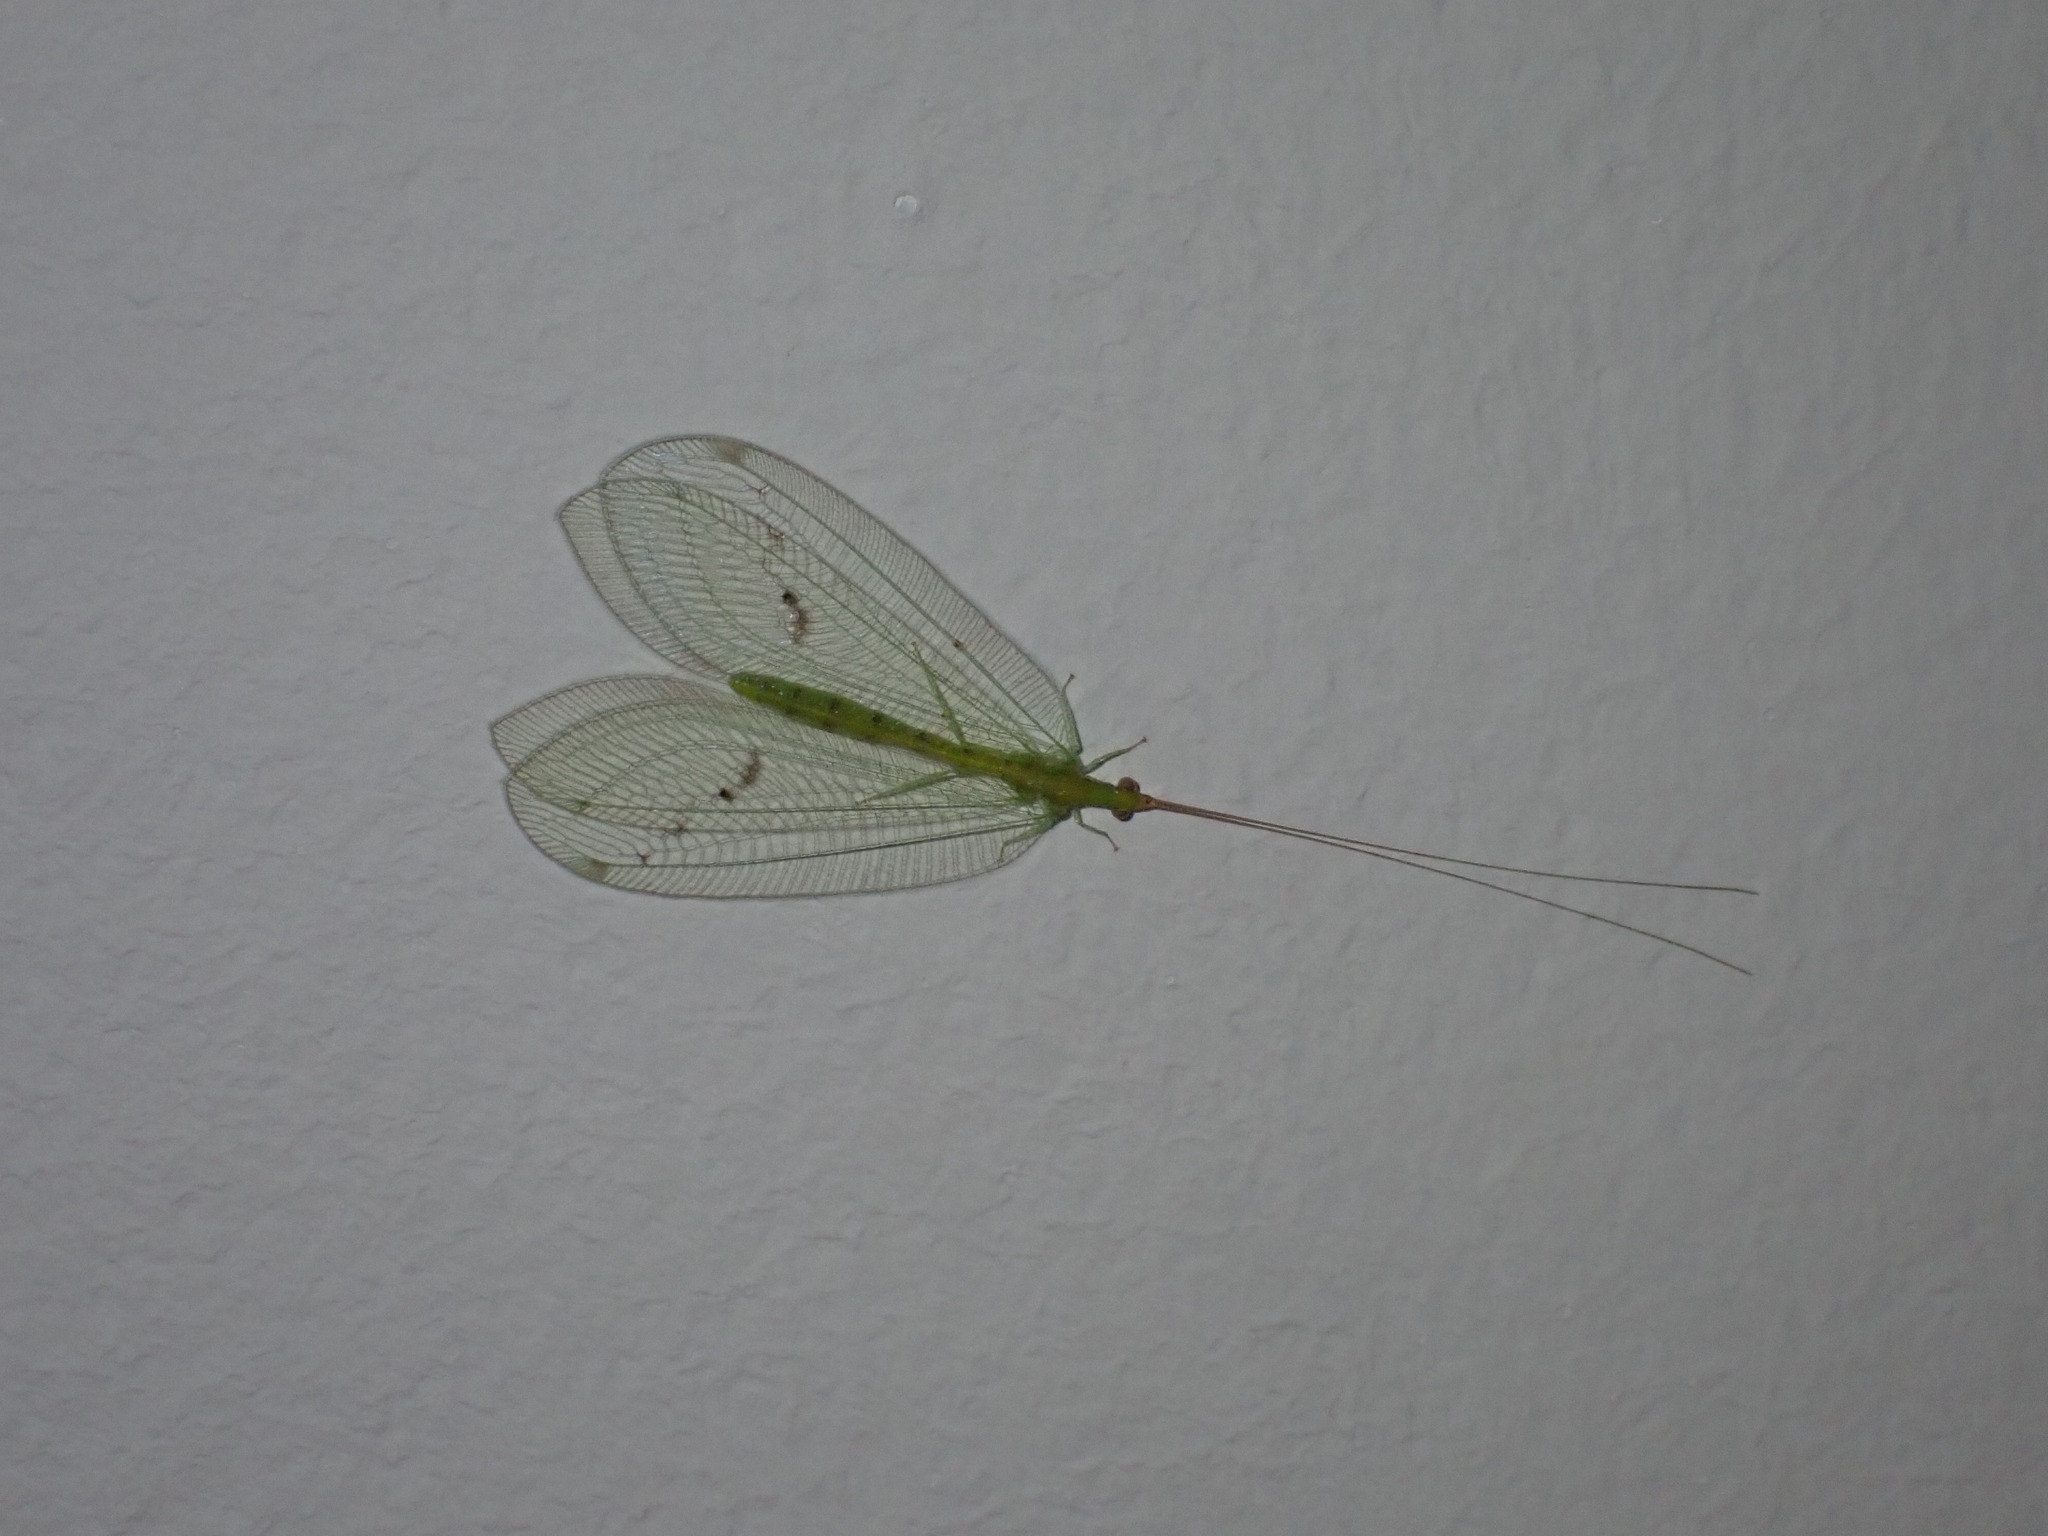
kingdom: Animalia
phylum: Arthropoda
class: Insecta
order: Neuroptera
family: Chrysopidae
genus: Apochrysa
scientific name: Apochrysa voeltzkowi
